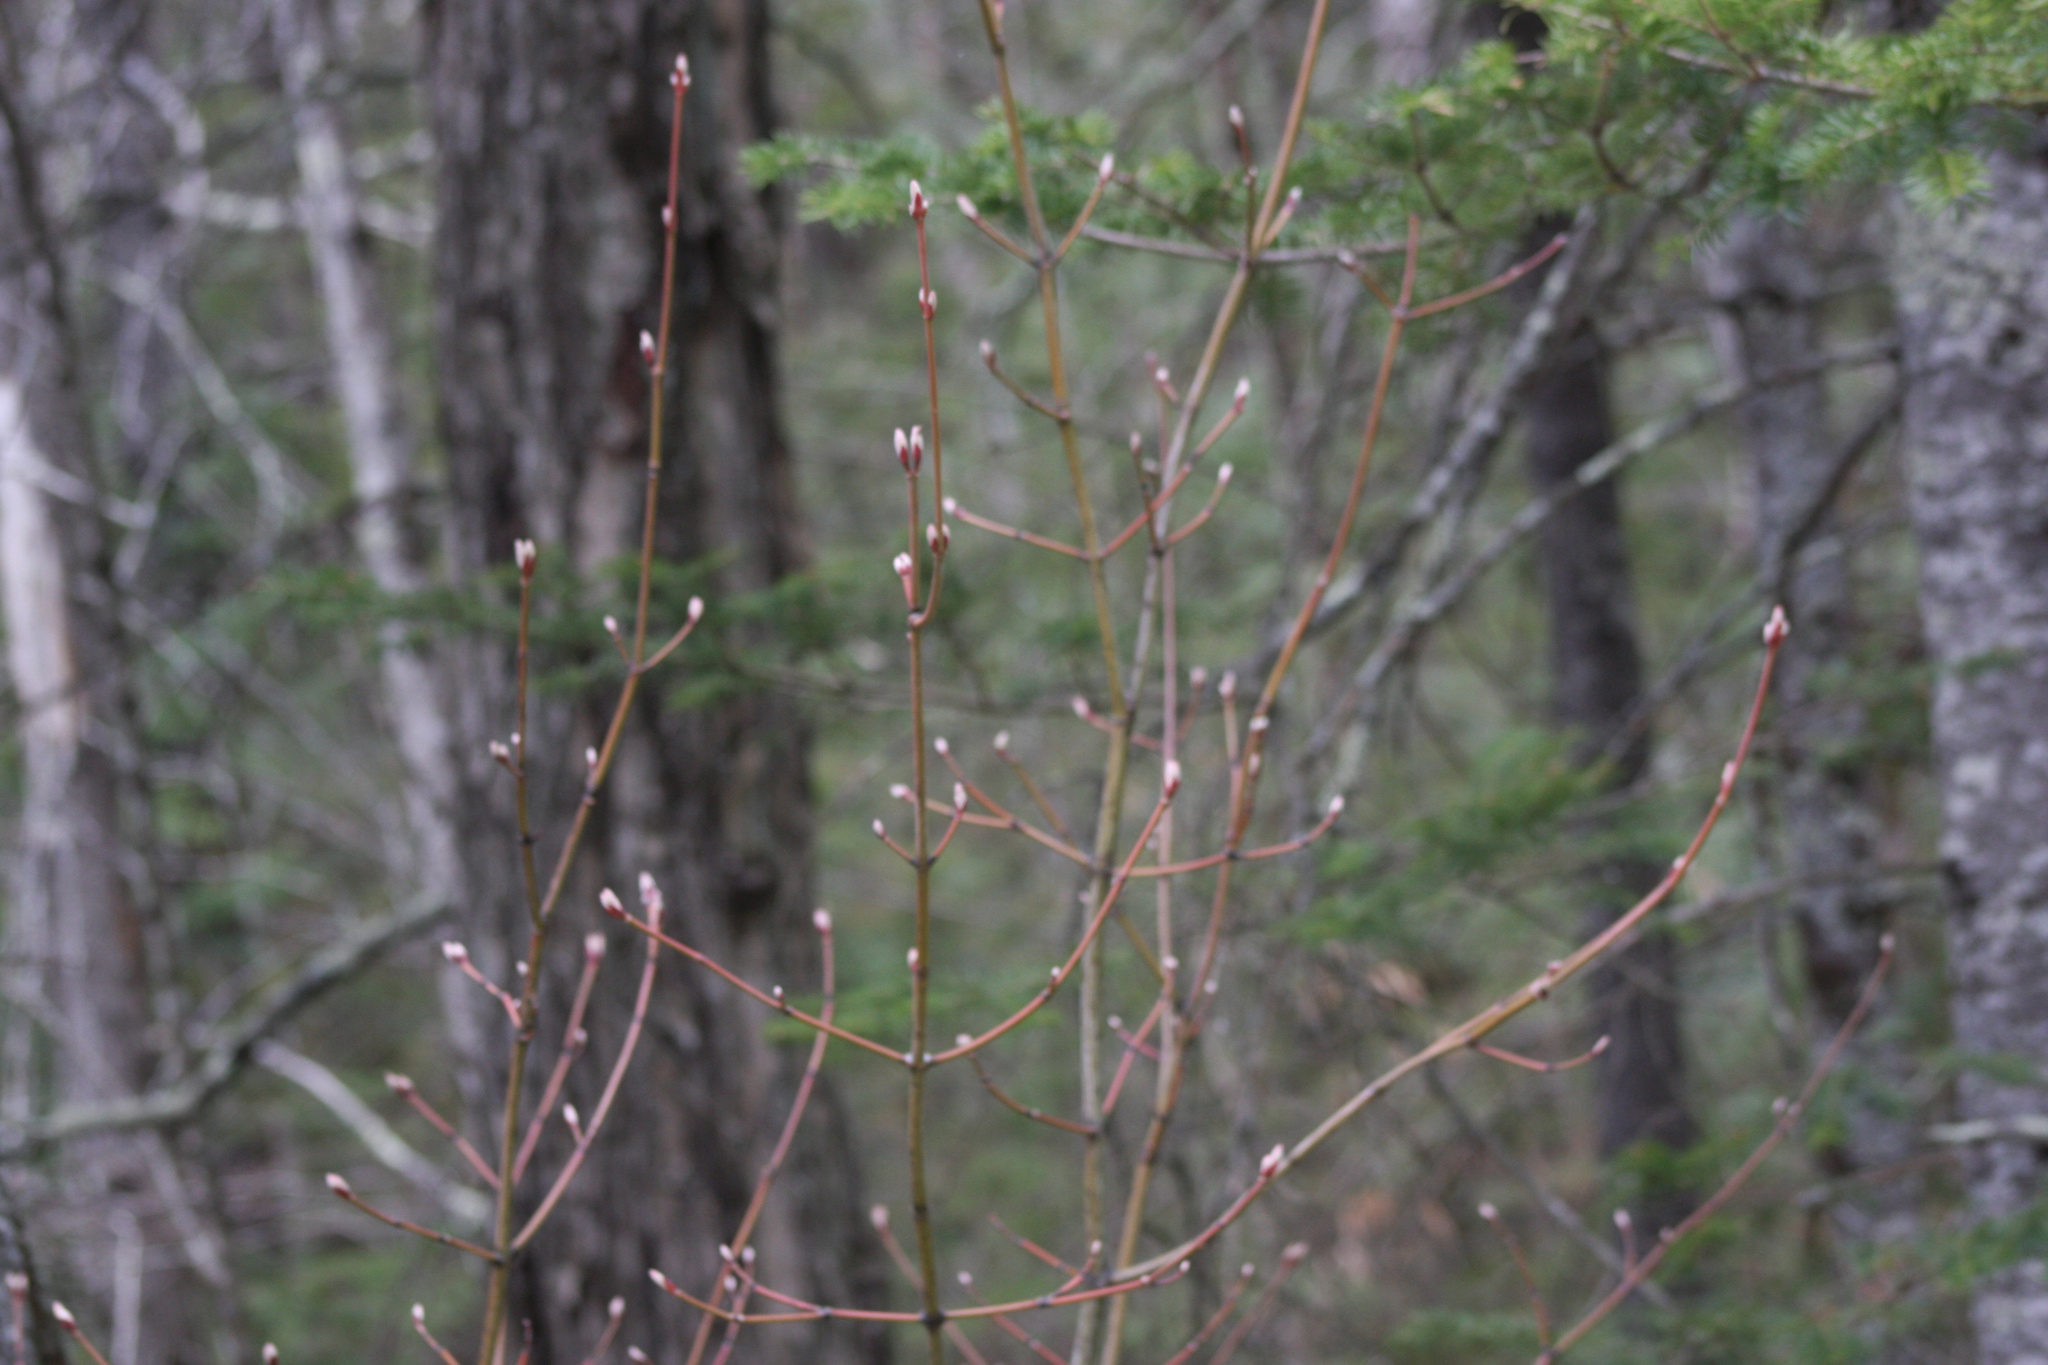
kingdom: Plantae
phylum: Tracheophyta
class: Magnoliopsida
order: Sapindales
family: Sapindaceae
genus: Acer
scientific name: Acer pensylvanicum
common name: Moosewood
